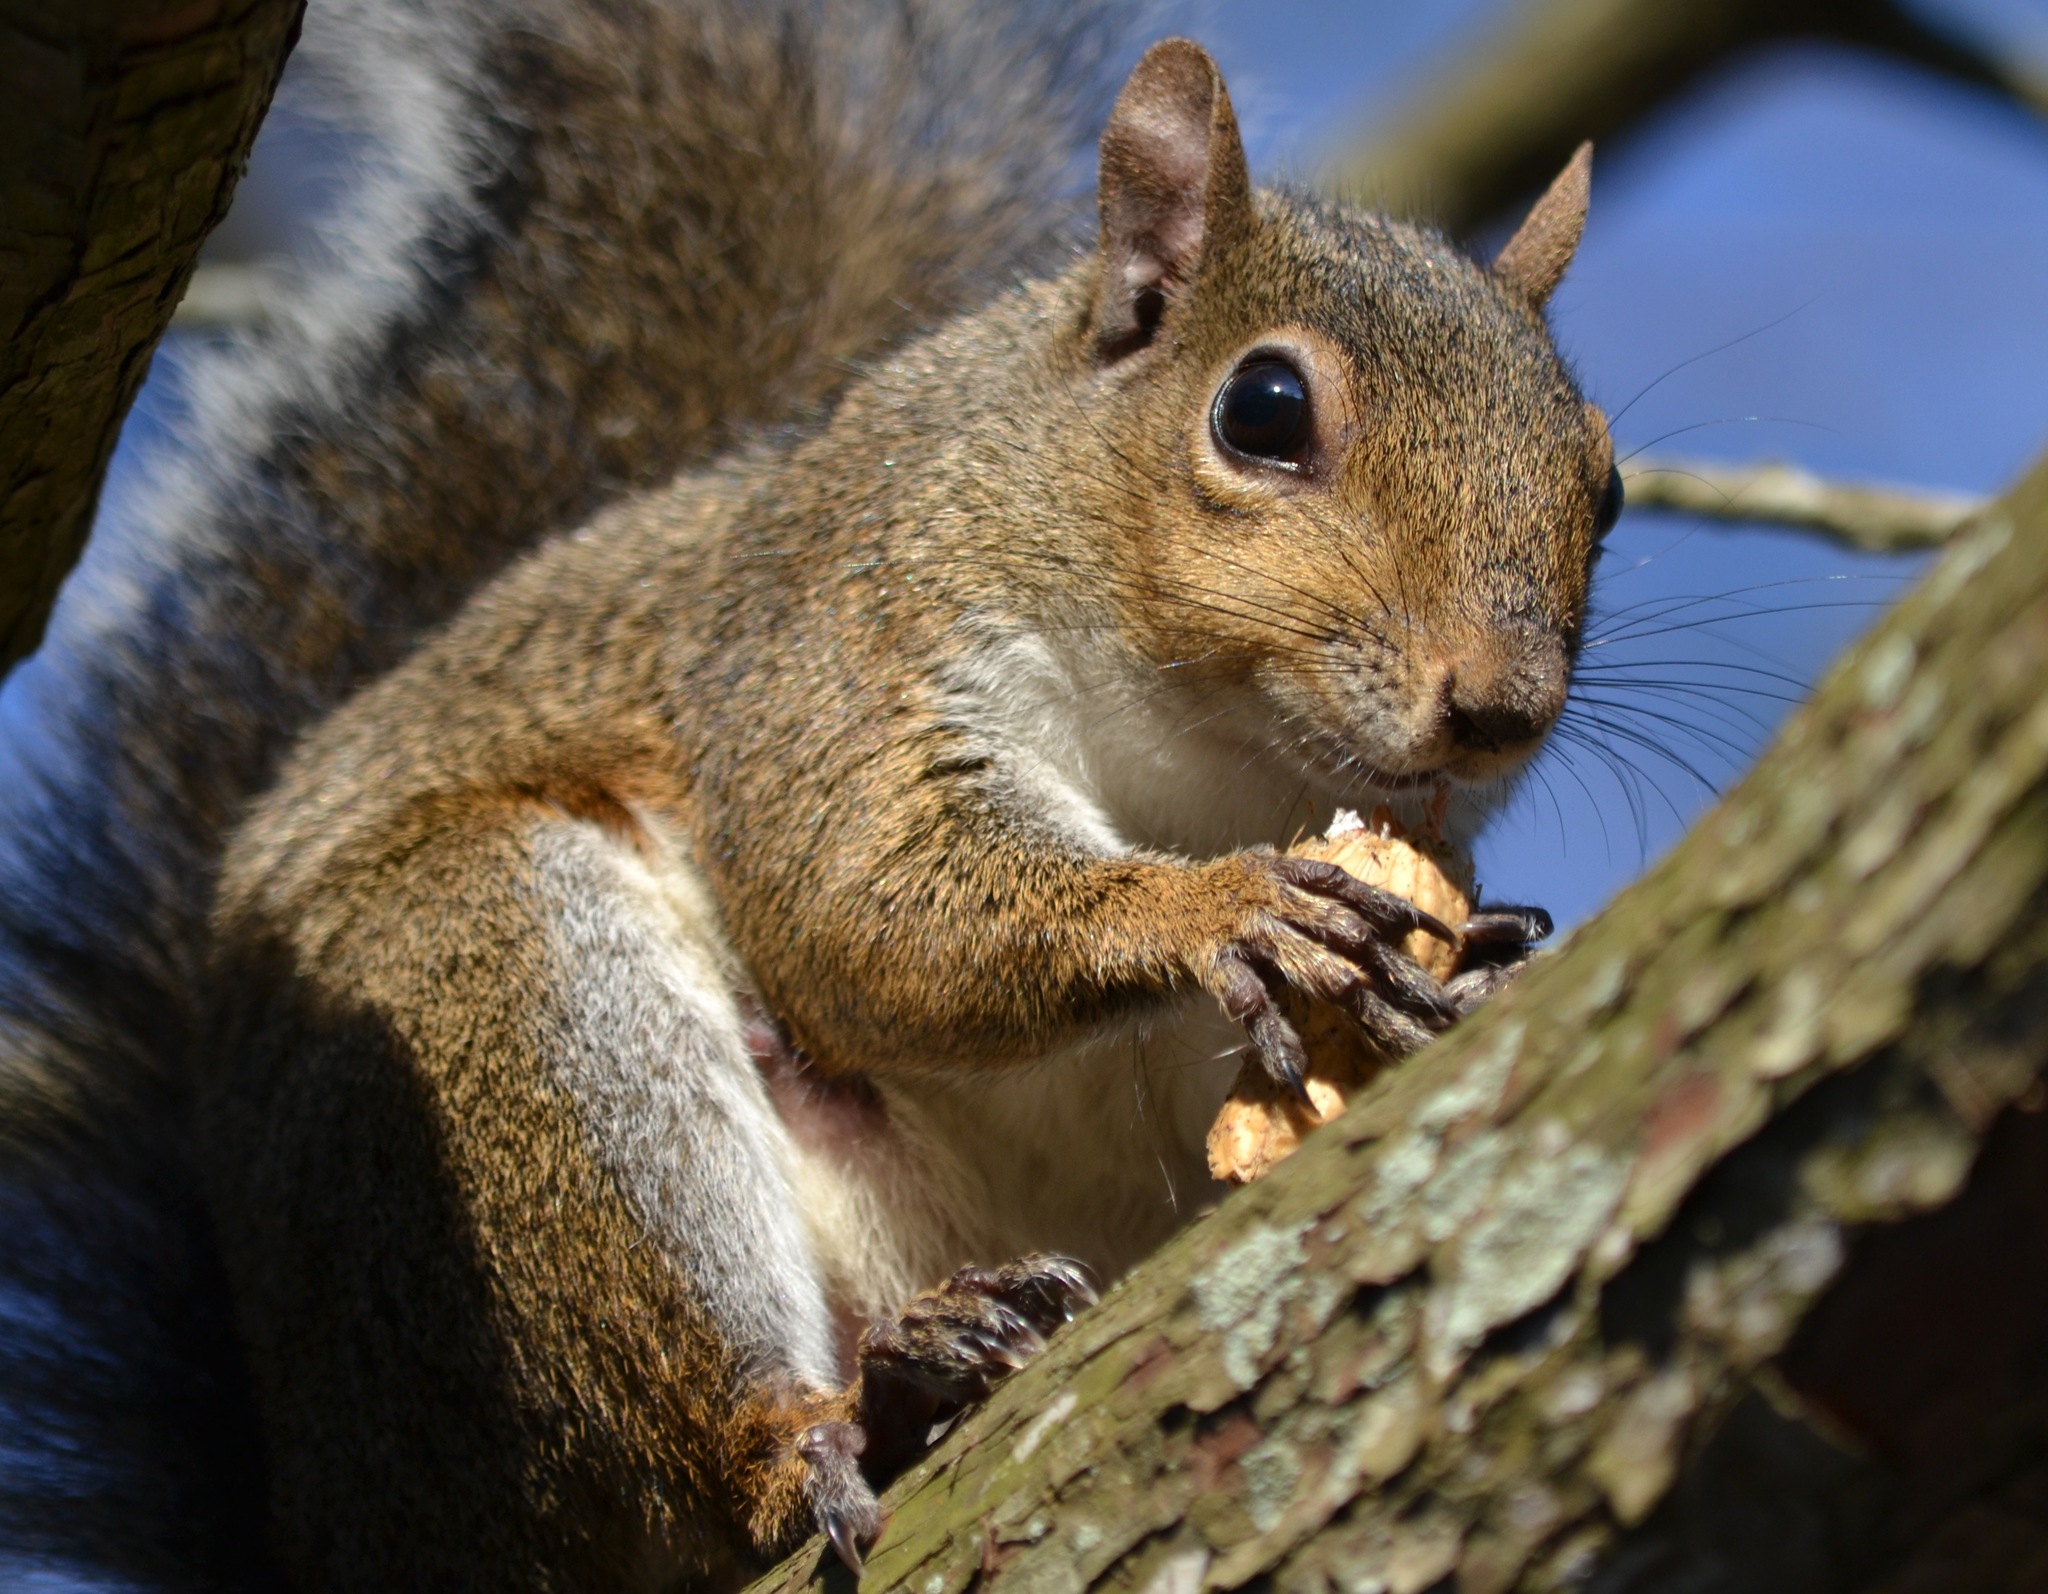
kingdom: Animalia
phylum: Chordata
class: Mammalia
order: Rodentia
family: Sciuridae
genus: Sciurus
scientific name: Sciurus carolinensis
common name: Eastern gray squirrel
